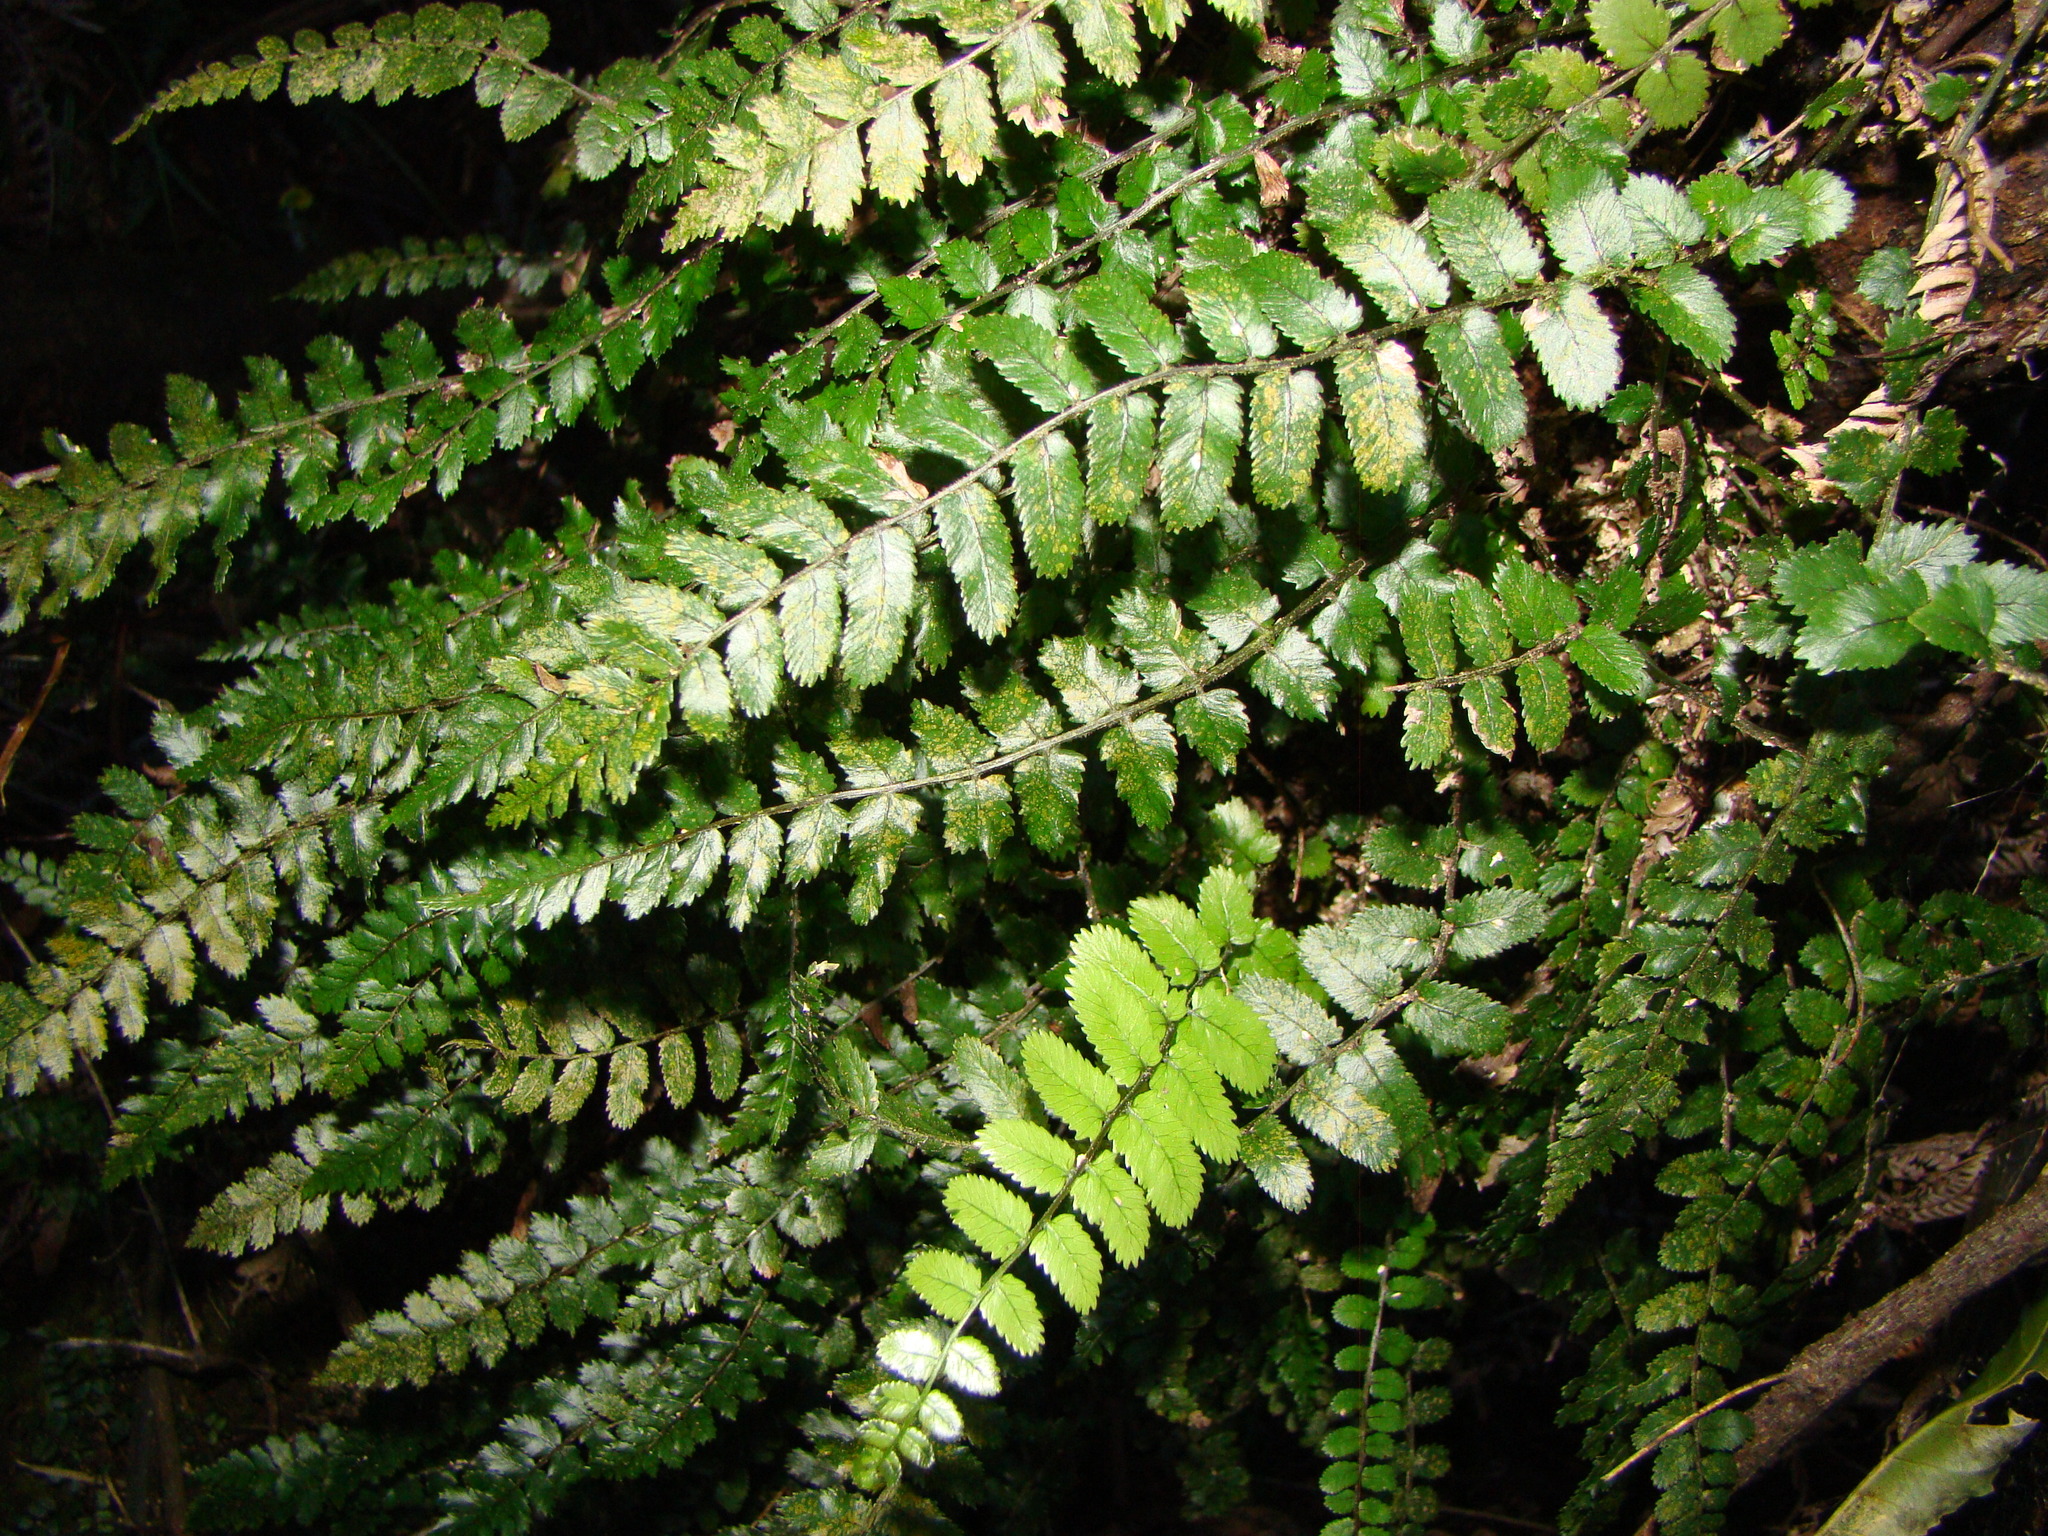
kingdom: Plantae
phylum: Tracheophyta
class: Polypodiopsida
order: Polypodiales
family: Blechnaceae
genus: Icarus
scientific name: Icarus filiformis
